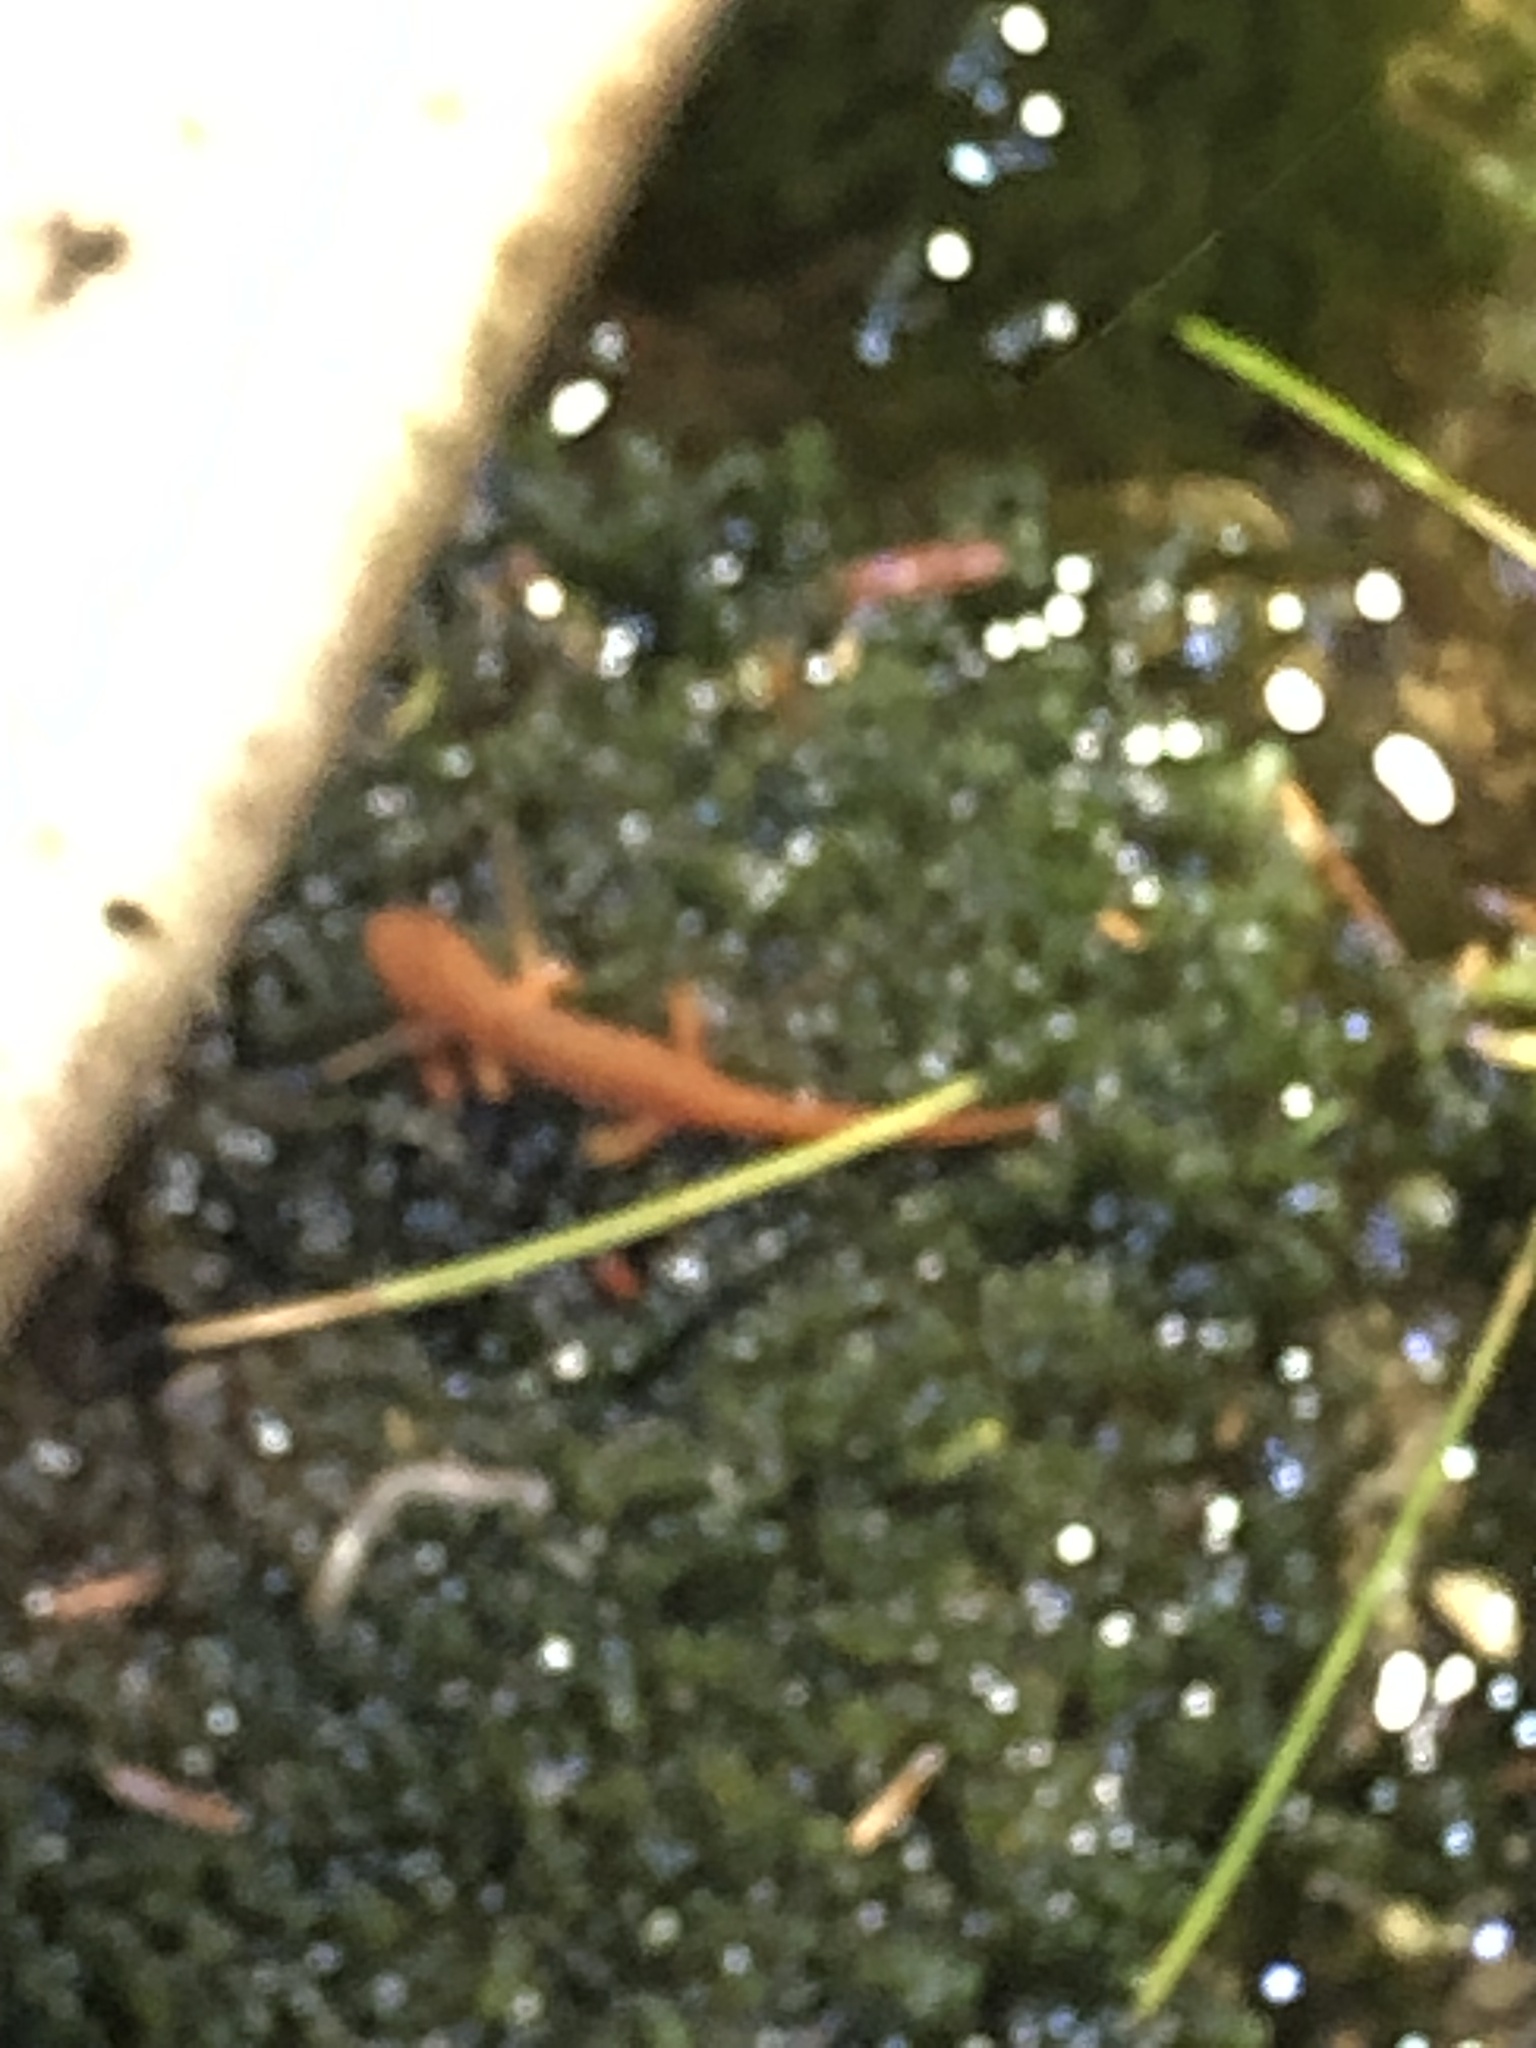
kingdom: Animalia
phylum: Chordata
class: Amphibia
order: Caudata
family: Salamandridae
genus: Notophthalmus
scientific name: Notophthalmus viridescens
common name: Eastern newt
